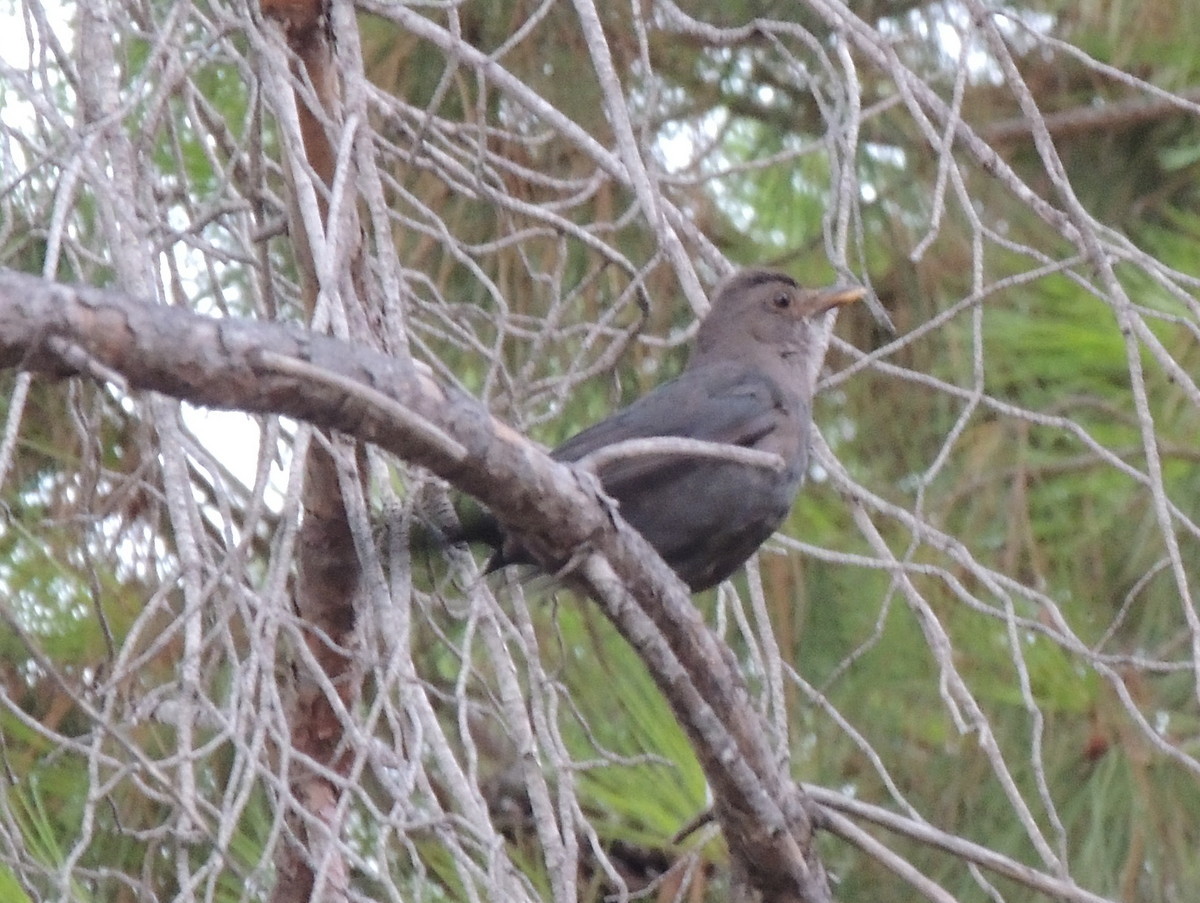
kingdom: Animalia
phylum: Chordata
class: Aves
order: Passeriformes
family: Turdidae
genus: Turdus
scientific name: Turdus merula
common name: Common blackbird
